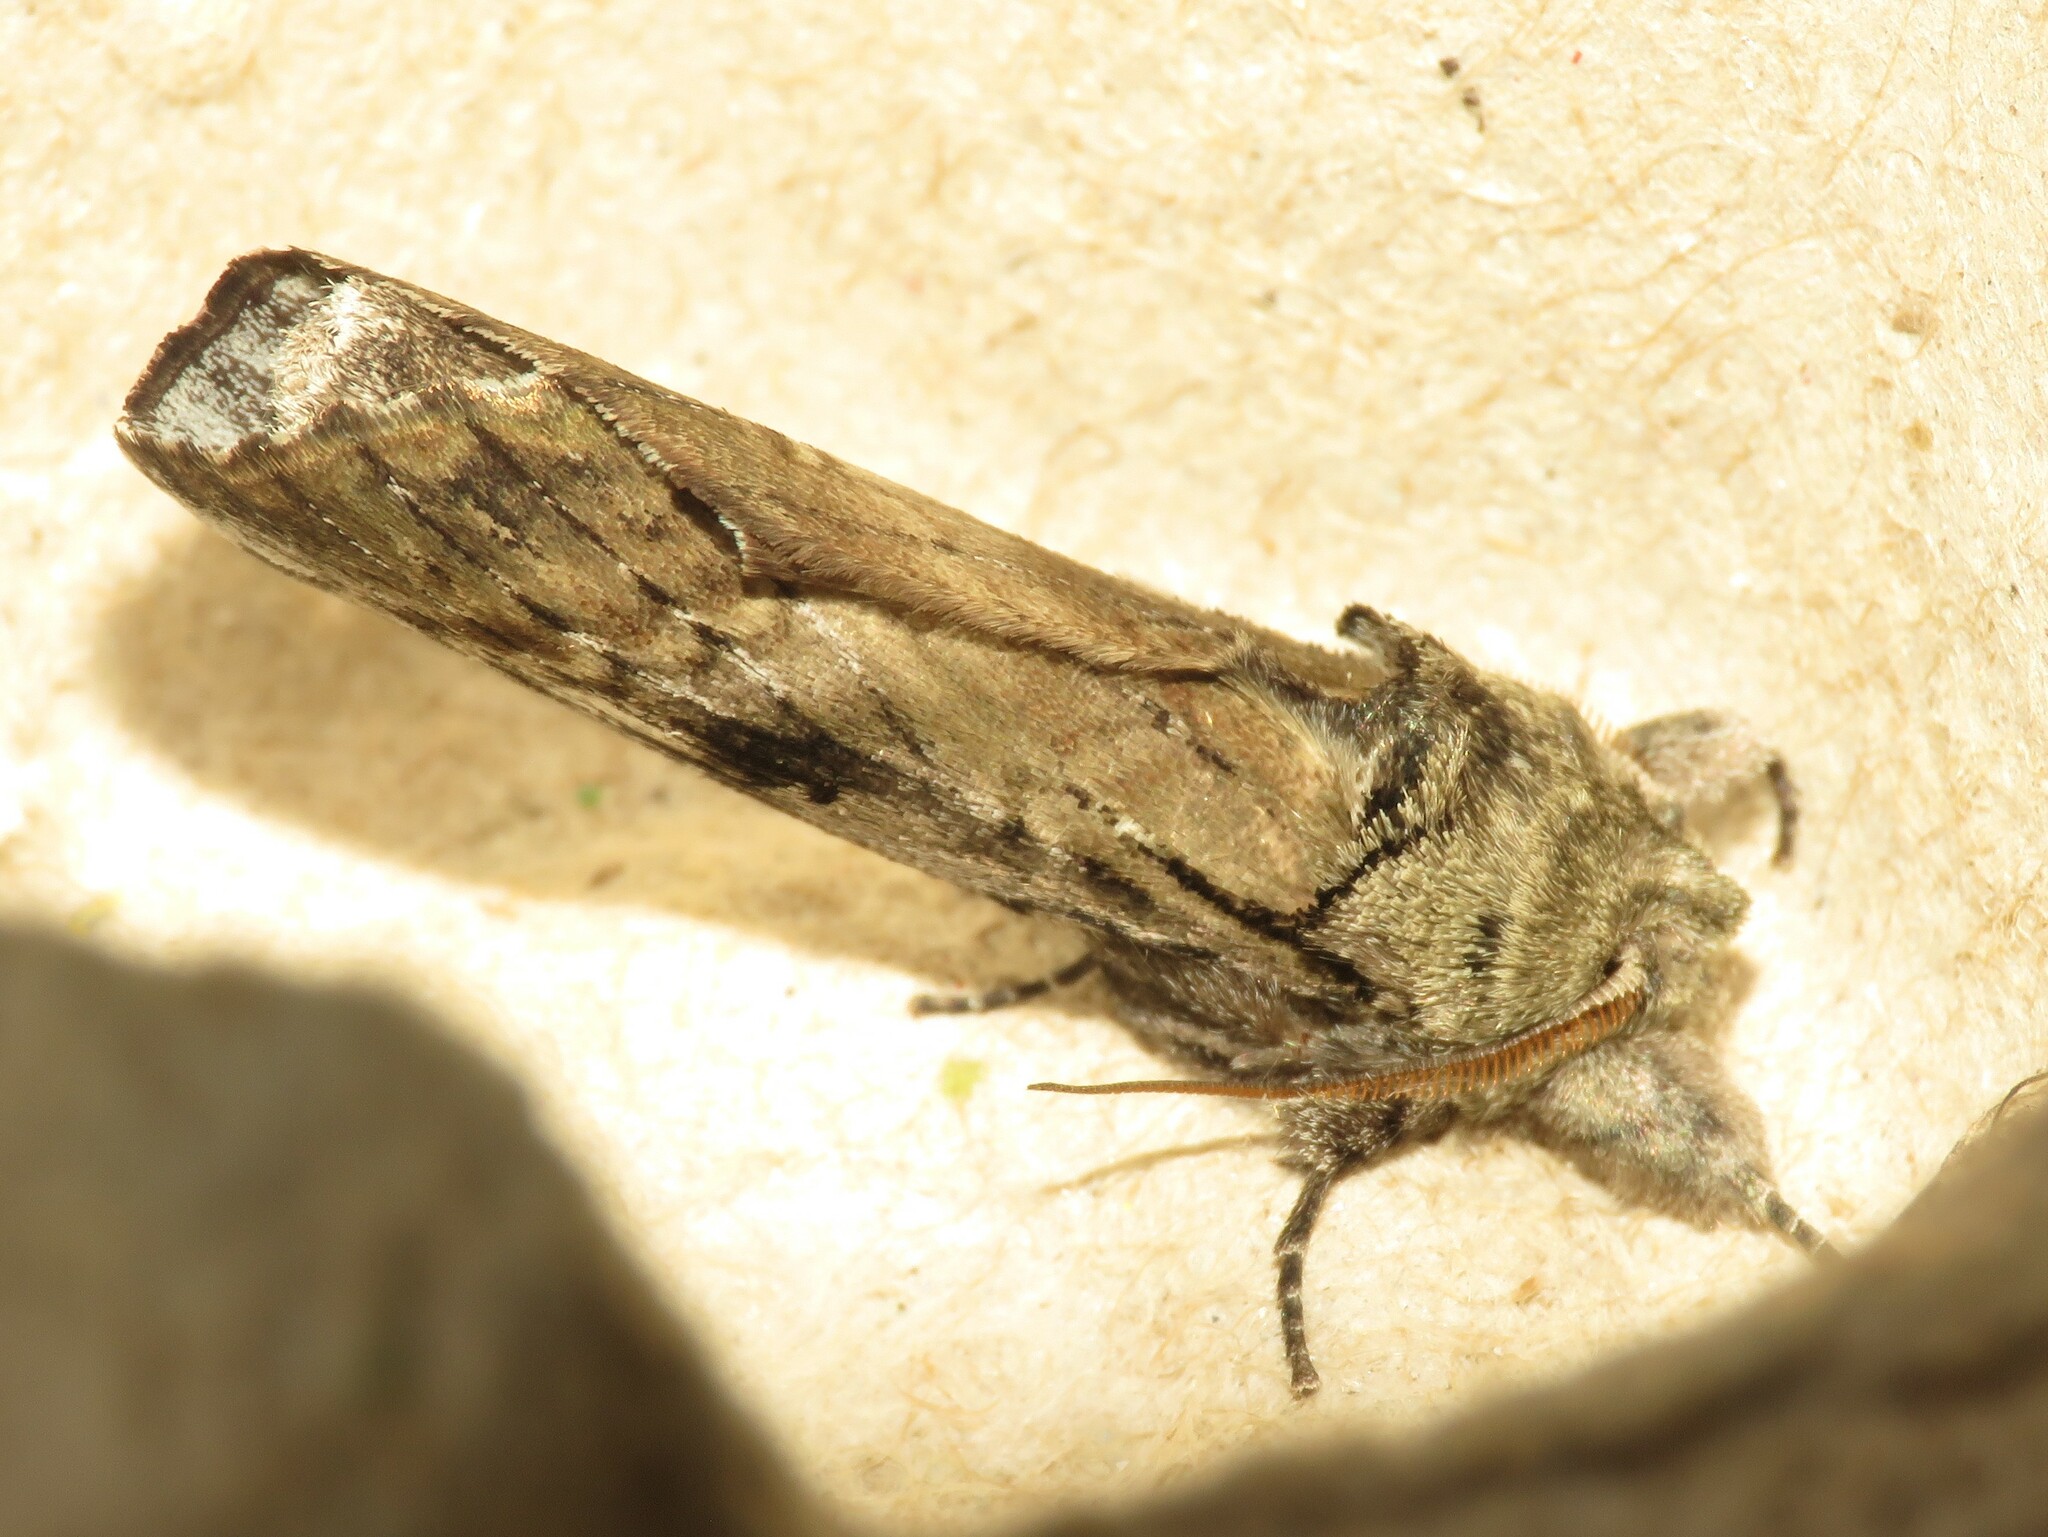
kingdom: Animalia
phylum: Arthropoda
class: Insecta
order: Lepidoptera
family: Notodontidae
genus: Schizura
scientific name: Schizura
